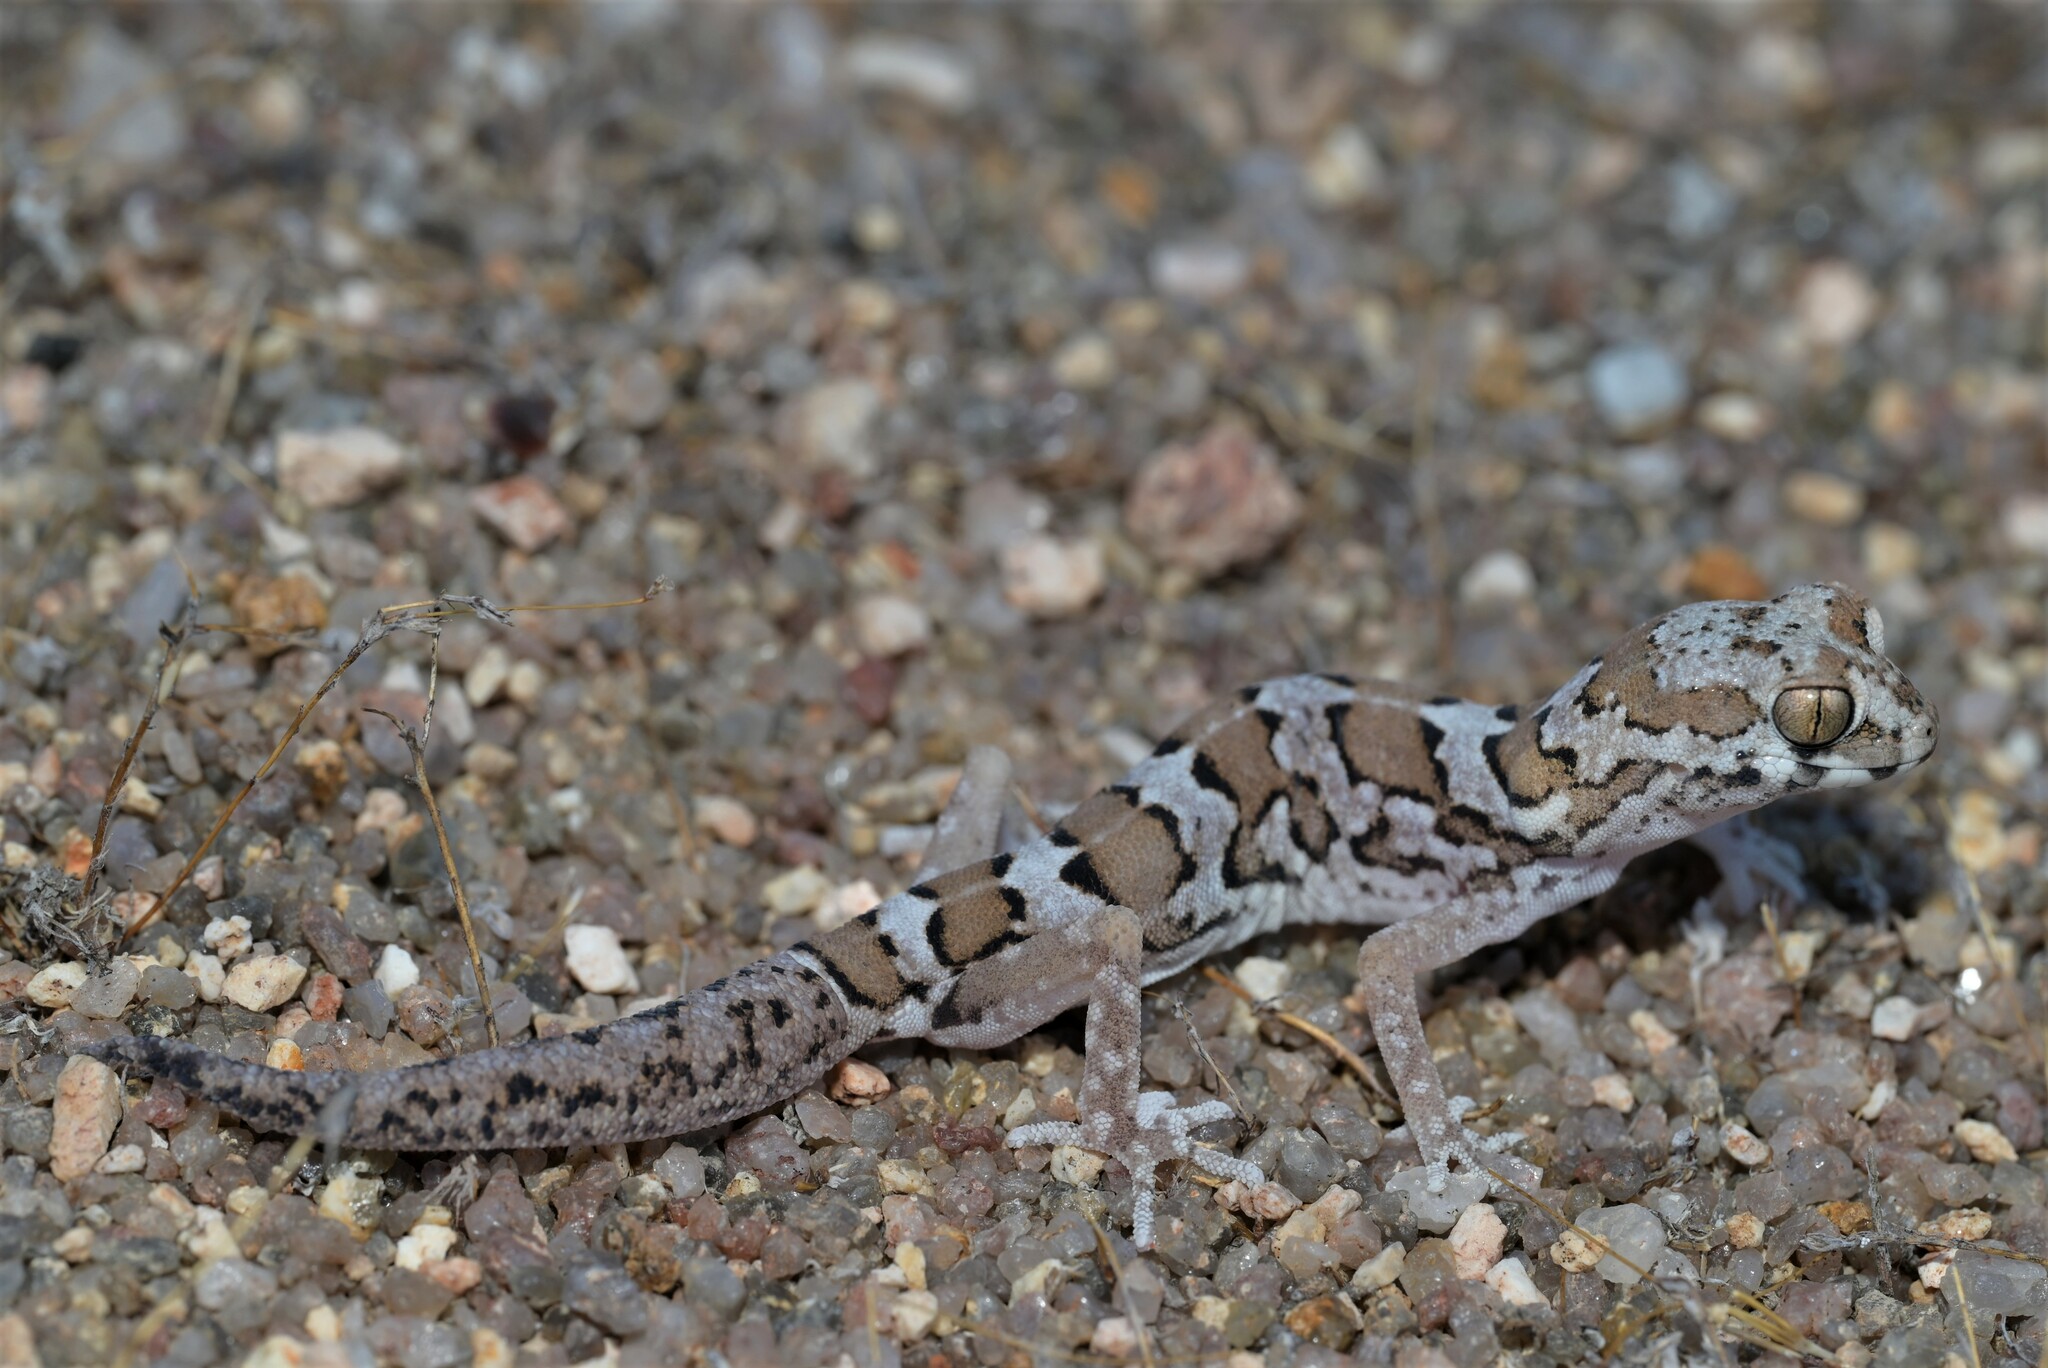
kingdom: Animalia
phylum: Chordata
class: Squamata
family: Gekkonidae
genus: Pachydactylus
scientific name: Pachydactylus macrolepis
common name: Large-scaled banded gecko
